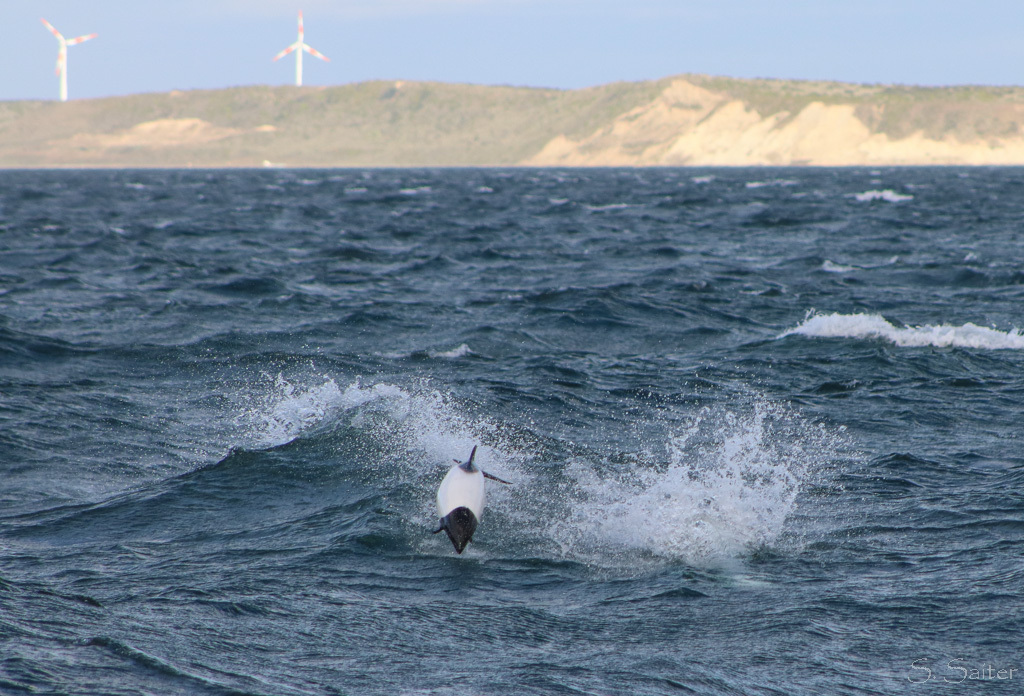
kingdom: Animalia
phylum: Chordata
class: Mammalia
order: Cetacea
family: Delphinidae
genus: Cephalorhynchus
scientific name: Cephalorhynchus commersonii
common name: Commerson's dolphin
